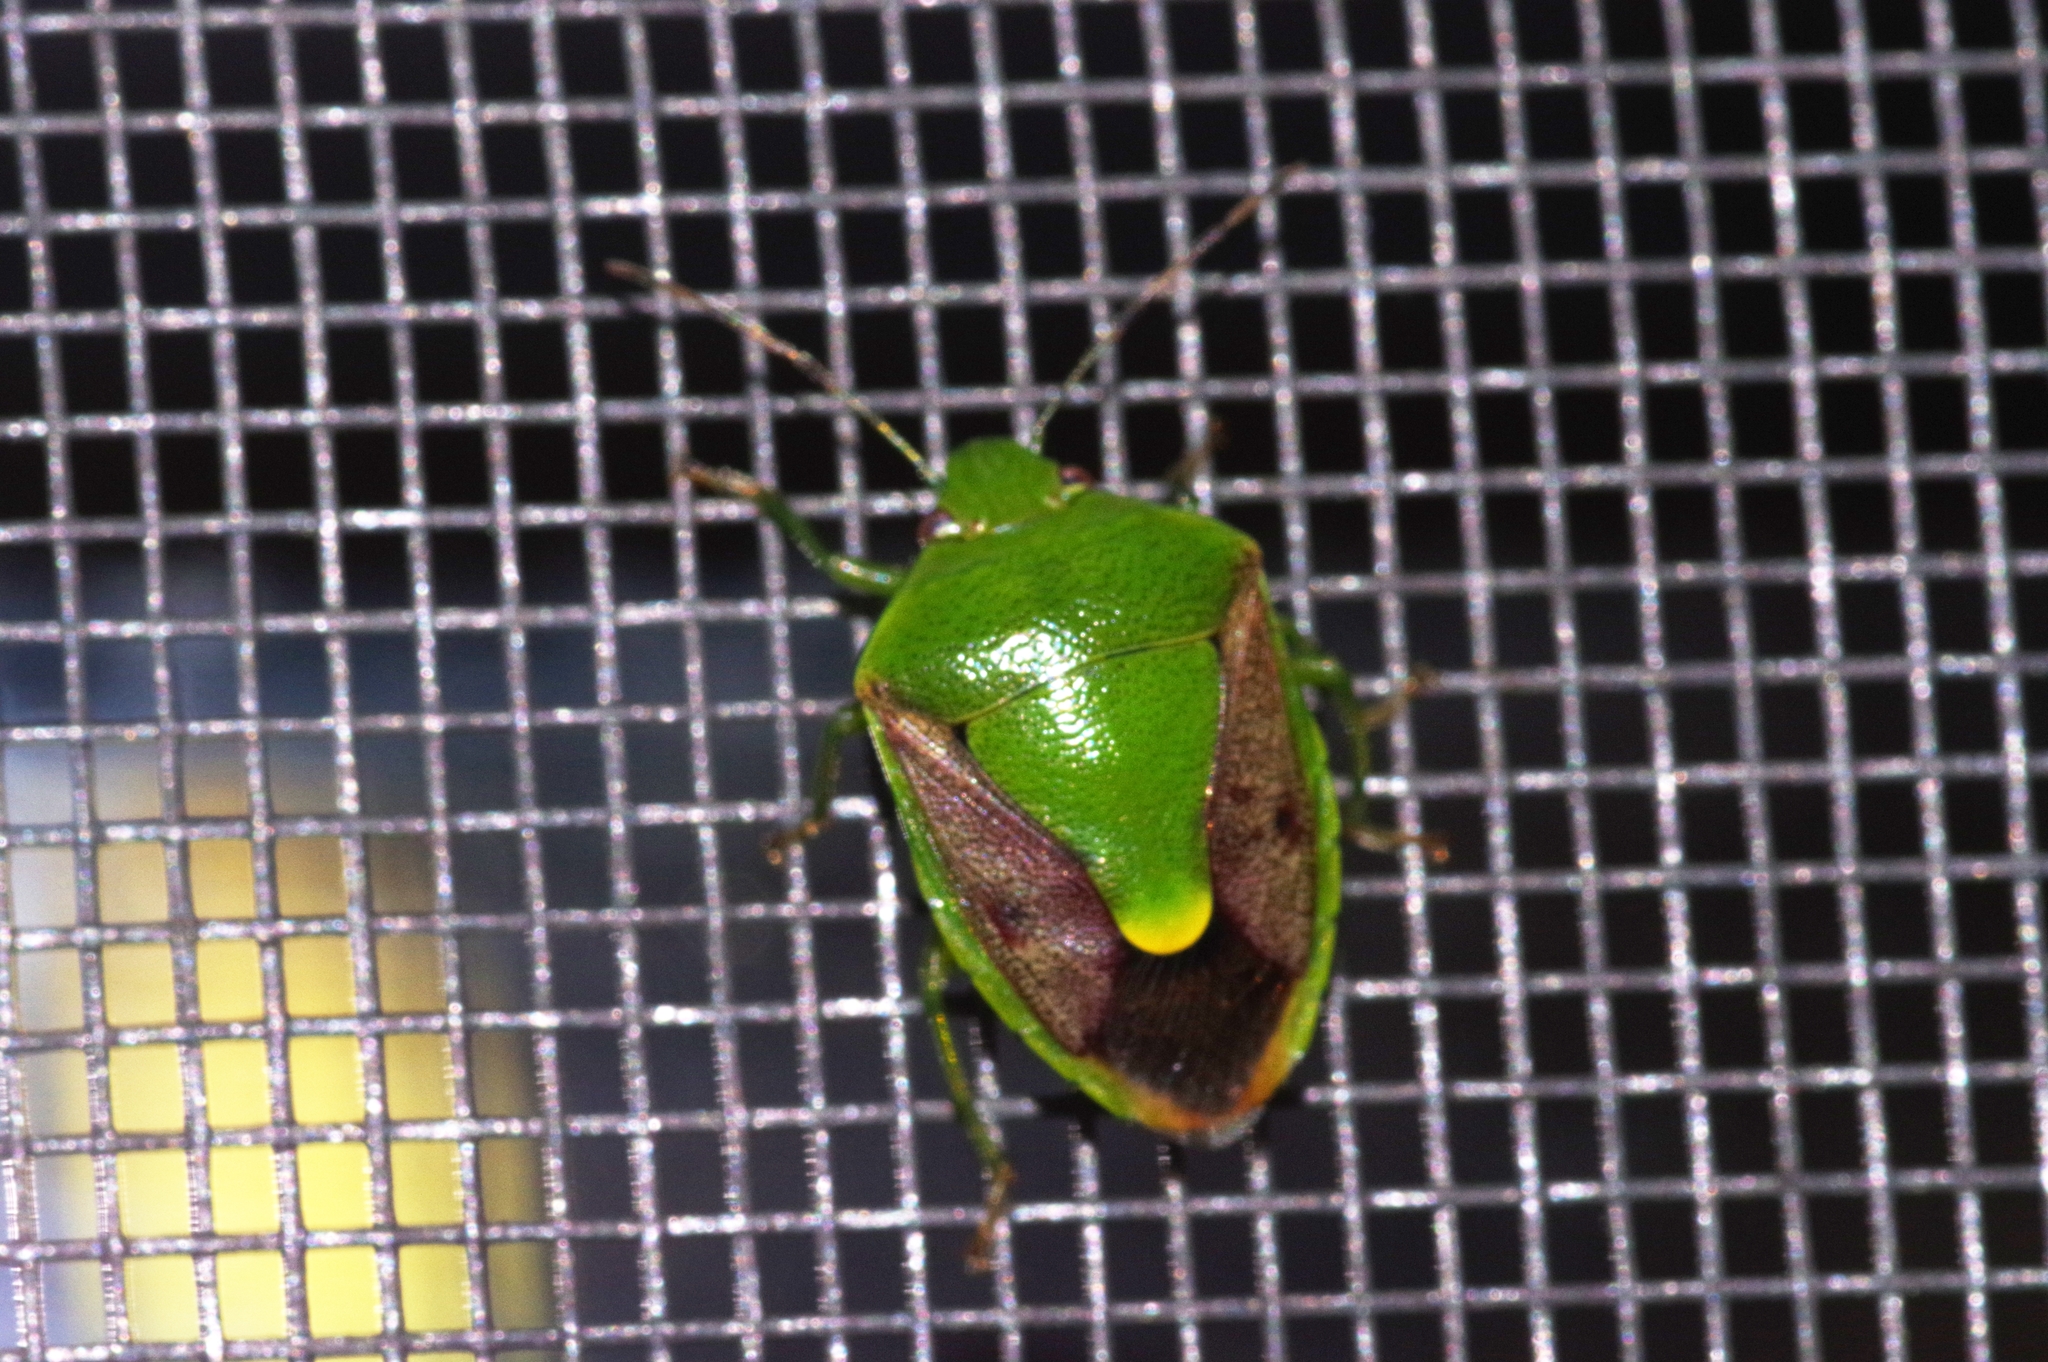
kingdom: Animalia
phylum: Arthropoda
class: Insecta
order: Hemiptera
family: Pentatomidae
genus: Plautia
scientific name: Plautia stali
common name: Stink bug
